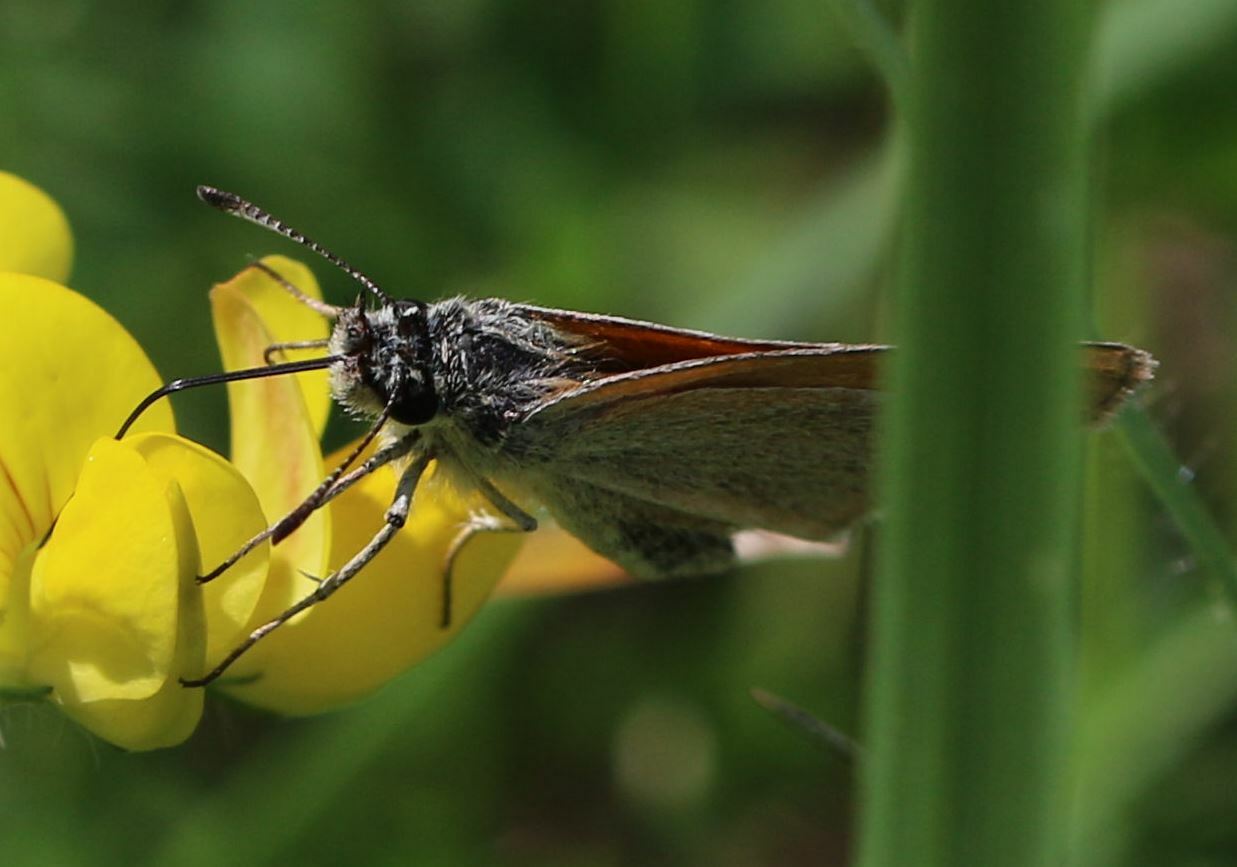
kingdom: Animalia
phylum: Arthropoda
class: Insecta
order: Lepidoptera
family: Hesperiidae
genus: Thymelicus
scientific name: Thymelicus lineola
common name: Essex skipper
